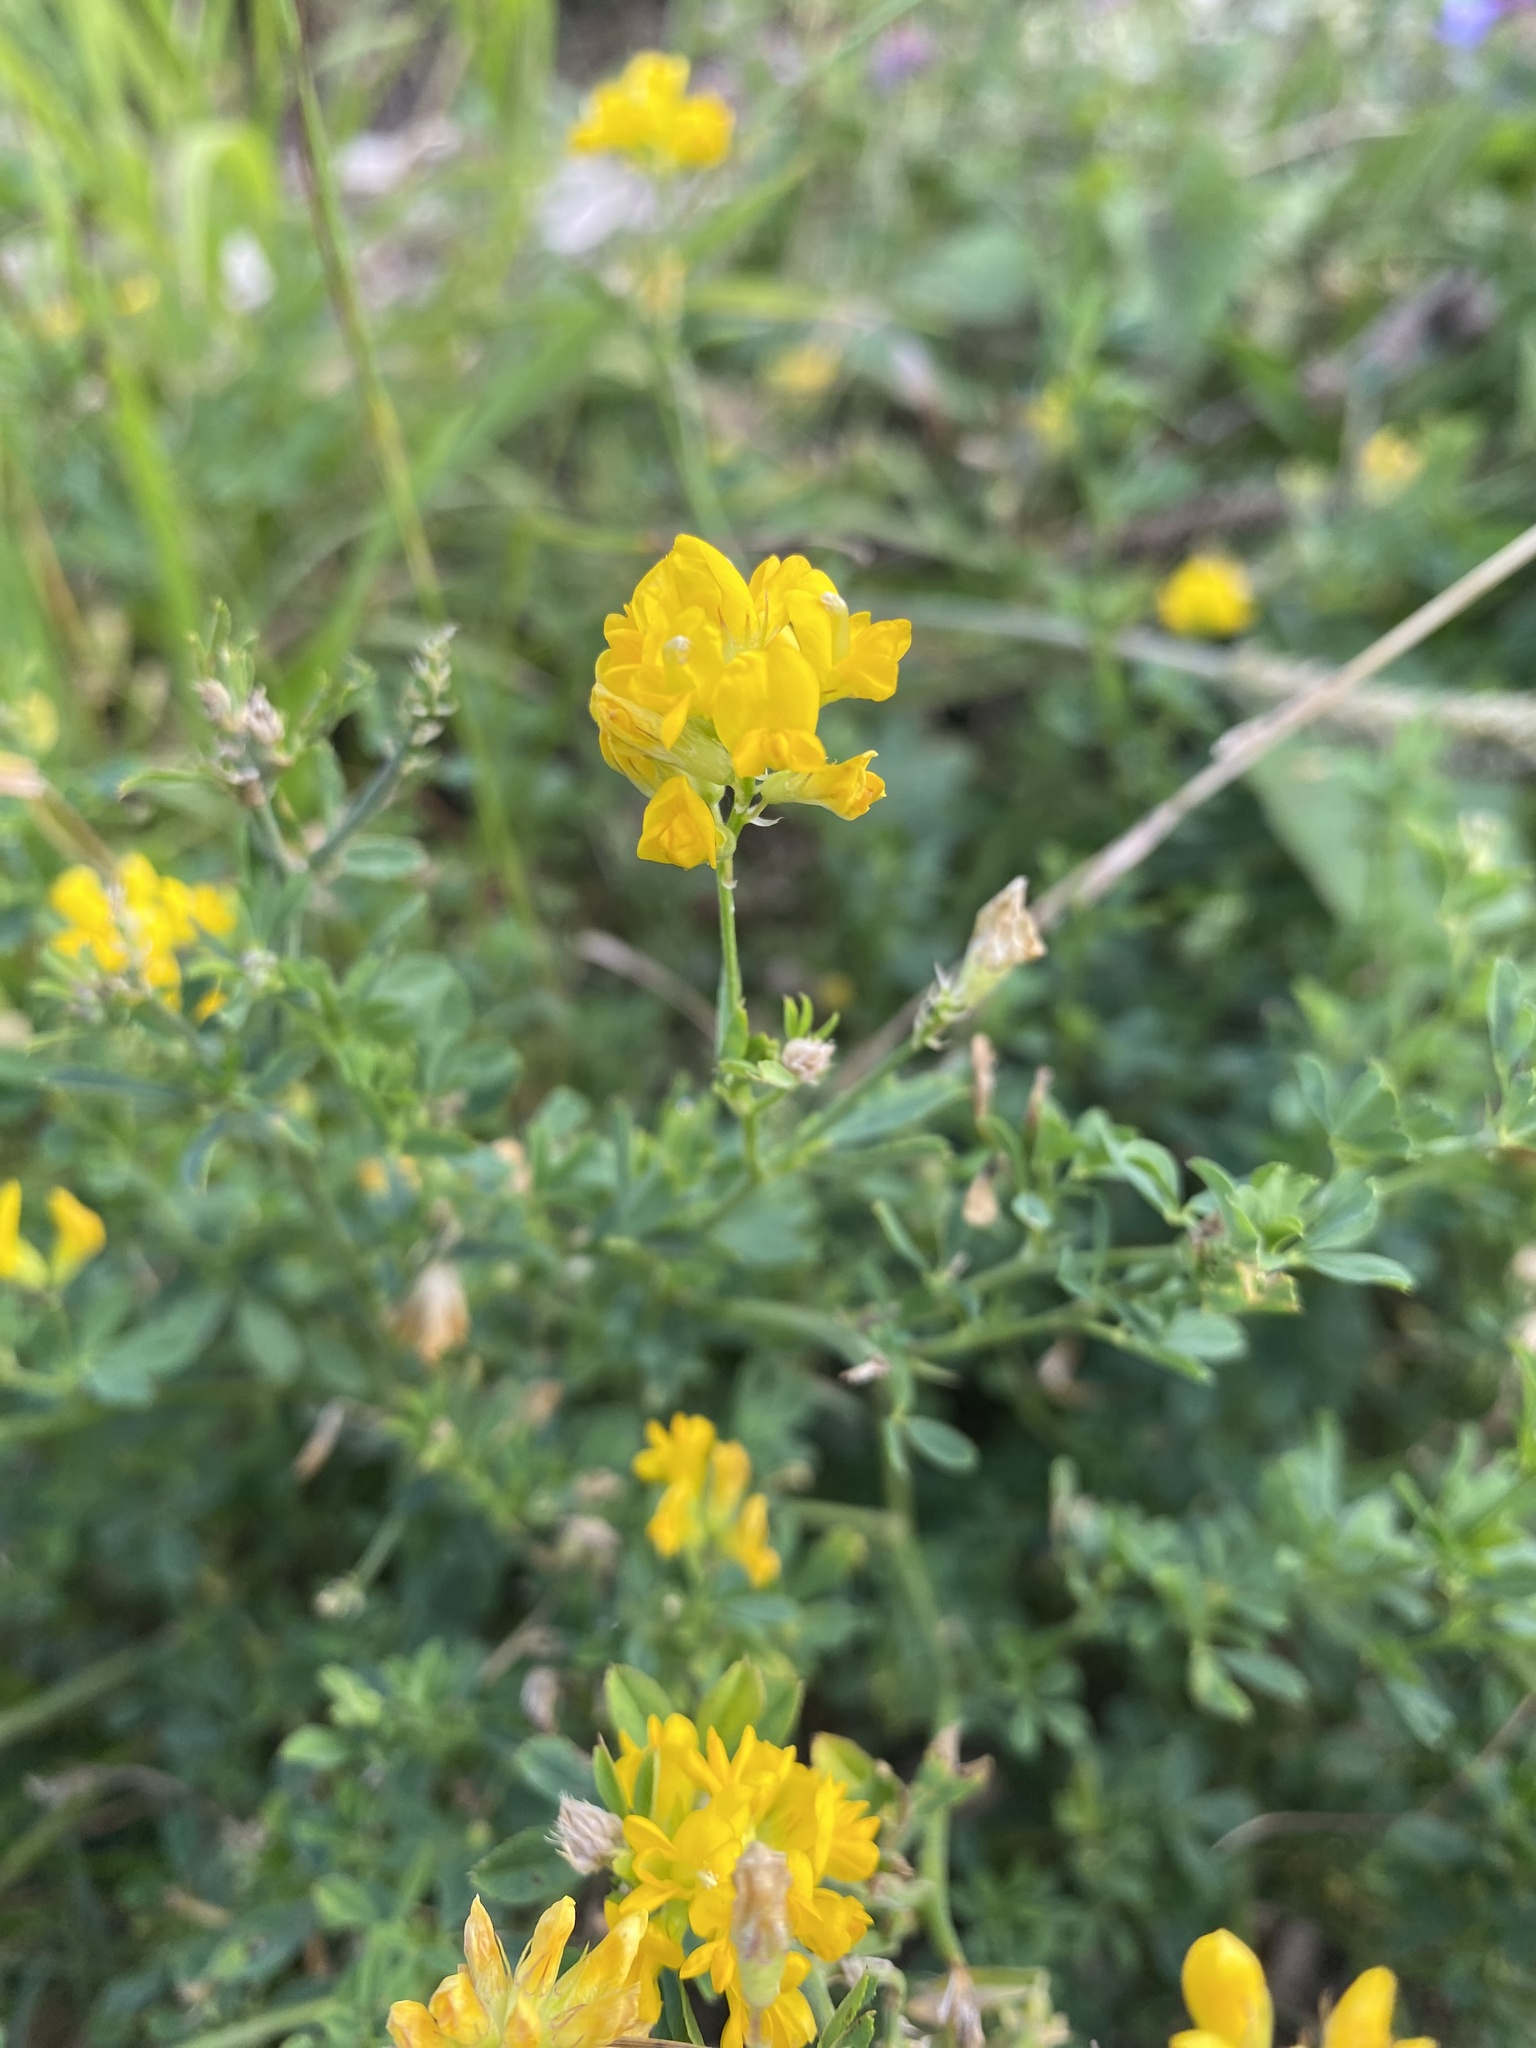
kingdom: Plantae
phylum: Tracheophyta
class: Magnoliopsida
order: Fabales
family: Fabaceae
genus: Medicago
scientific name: Medicago falcata
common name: Sickle medick
